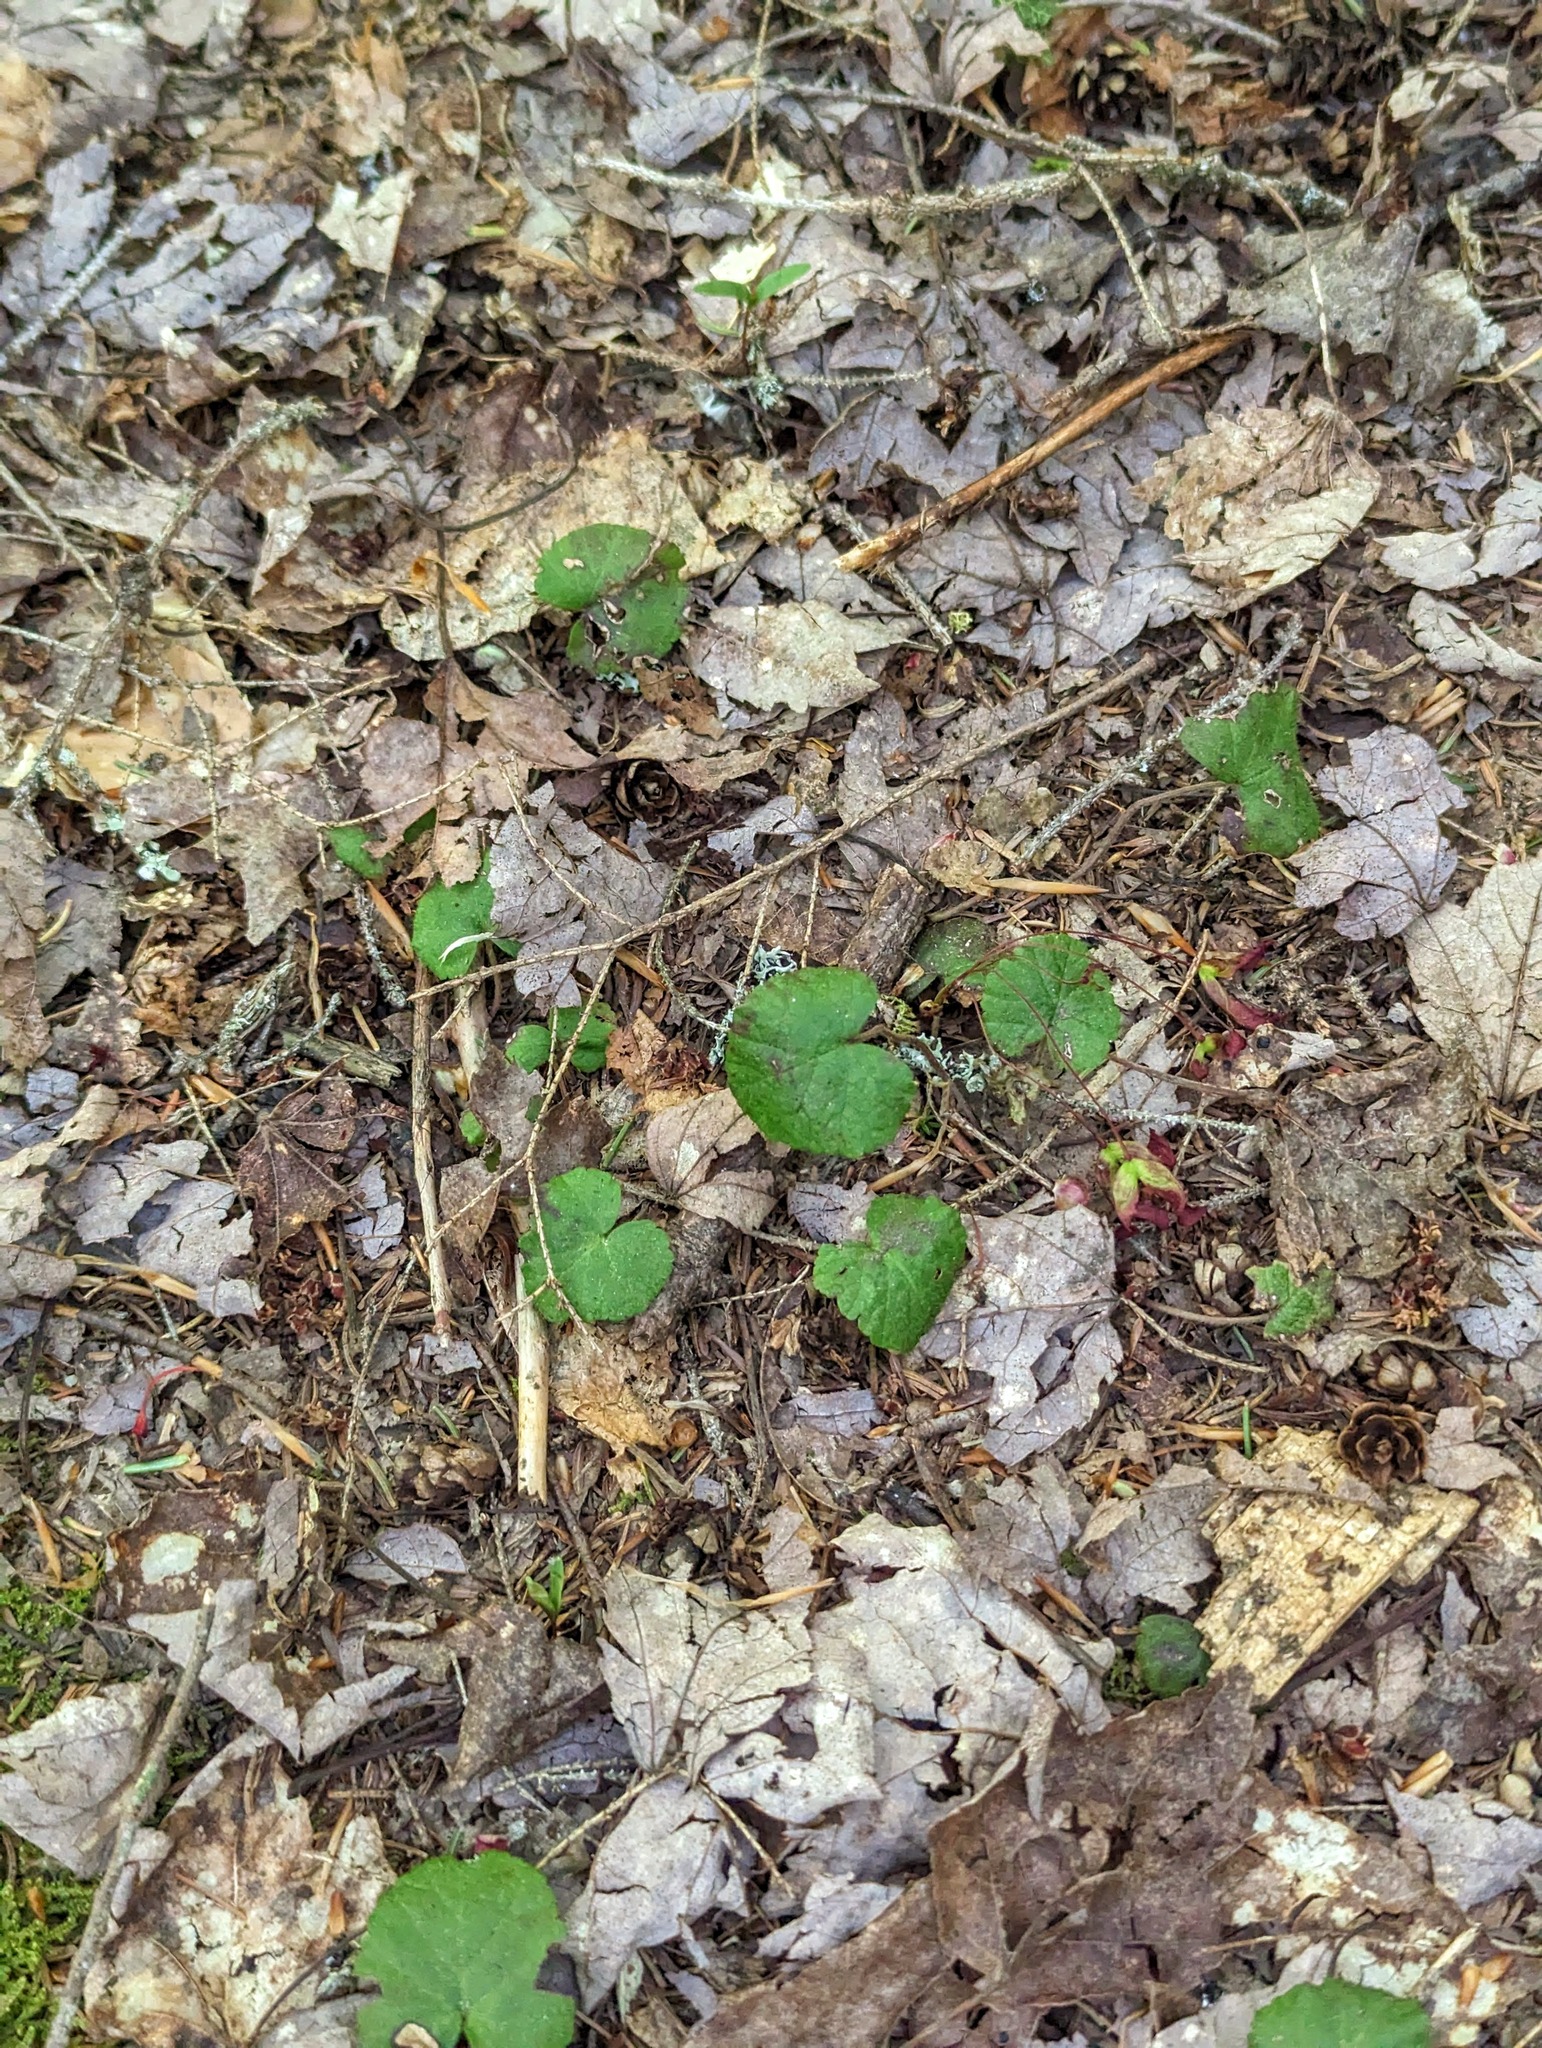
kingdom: Plantae
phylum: Tracheophyta
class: Magnoliopsida
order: Rosales
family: Rosaceae
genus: Dalibarda
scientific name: Dalibarda repens
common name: Dewdrop
